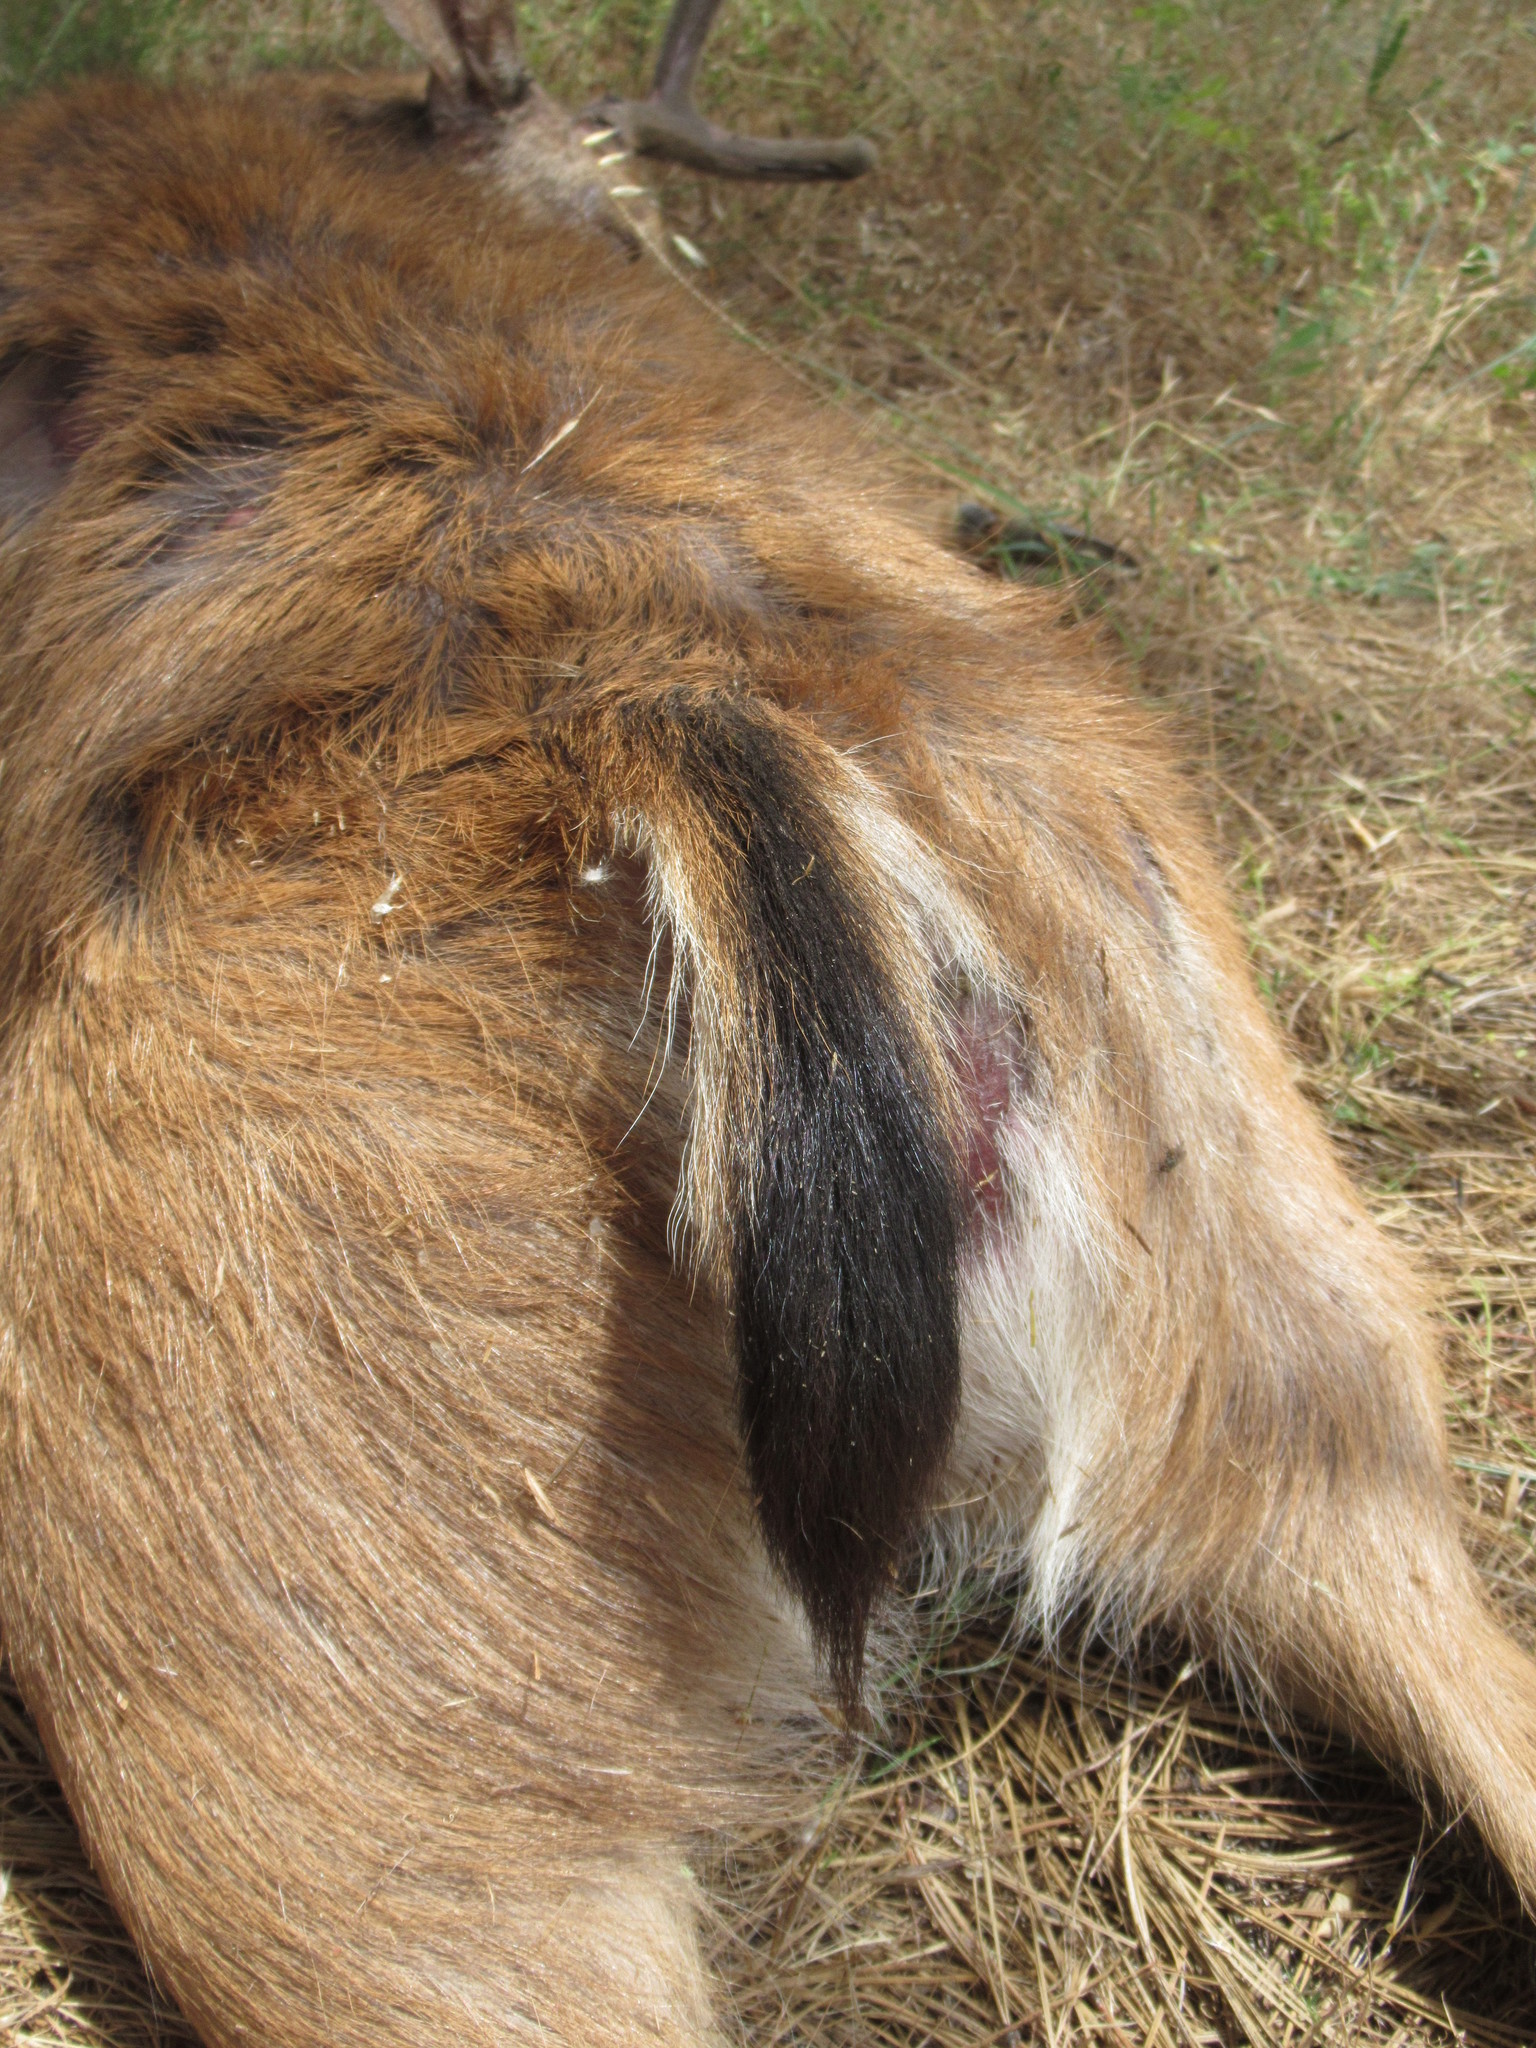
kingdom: Animalia
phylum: Chordata
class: Mammalia
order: Artiodactyla
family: Cervidae
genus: Odocoileus
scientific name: Odocoileus hemionus
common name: Mule deer
